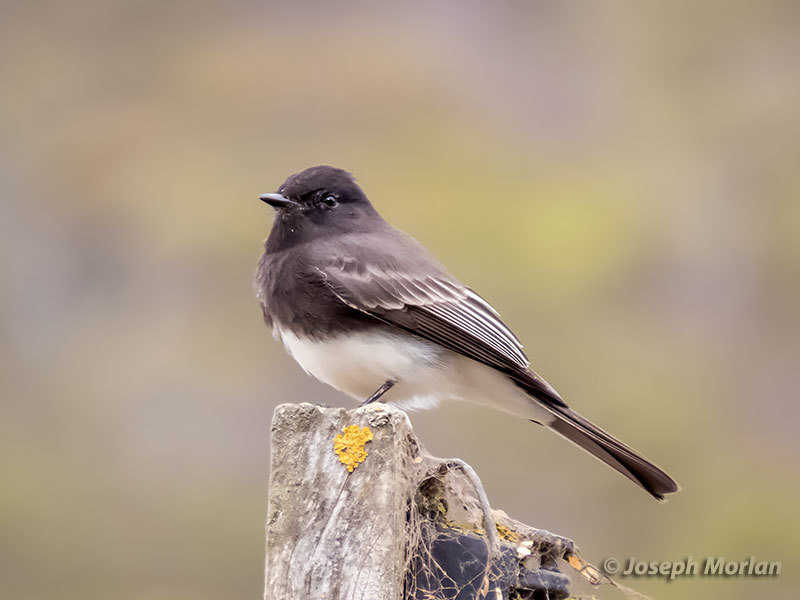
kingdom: Animalia
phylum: Chordata
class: Aves
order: Passeriformes
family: Tyrannidae
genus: Sayornis
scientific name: Sayornis nigricans
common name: Black phoebe
